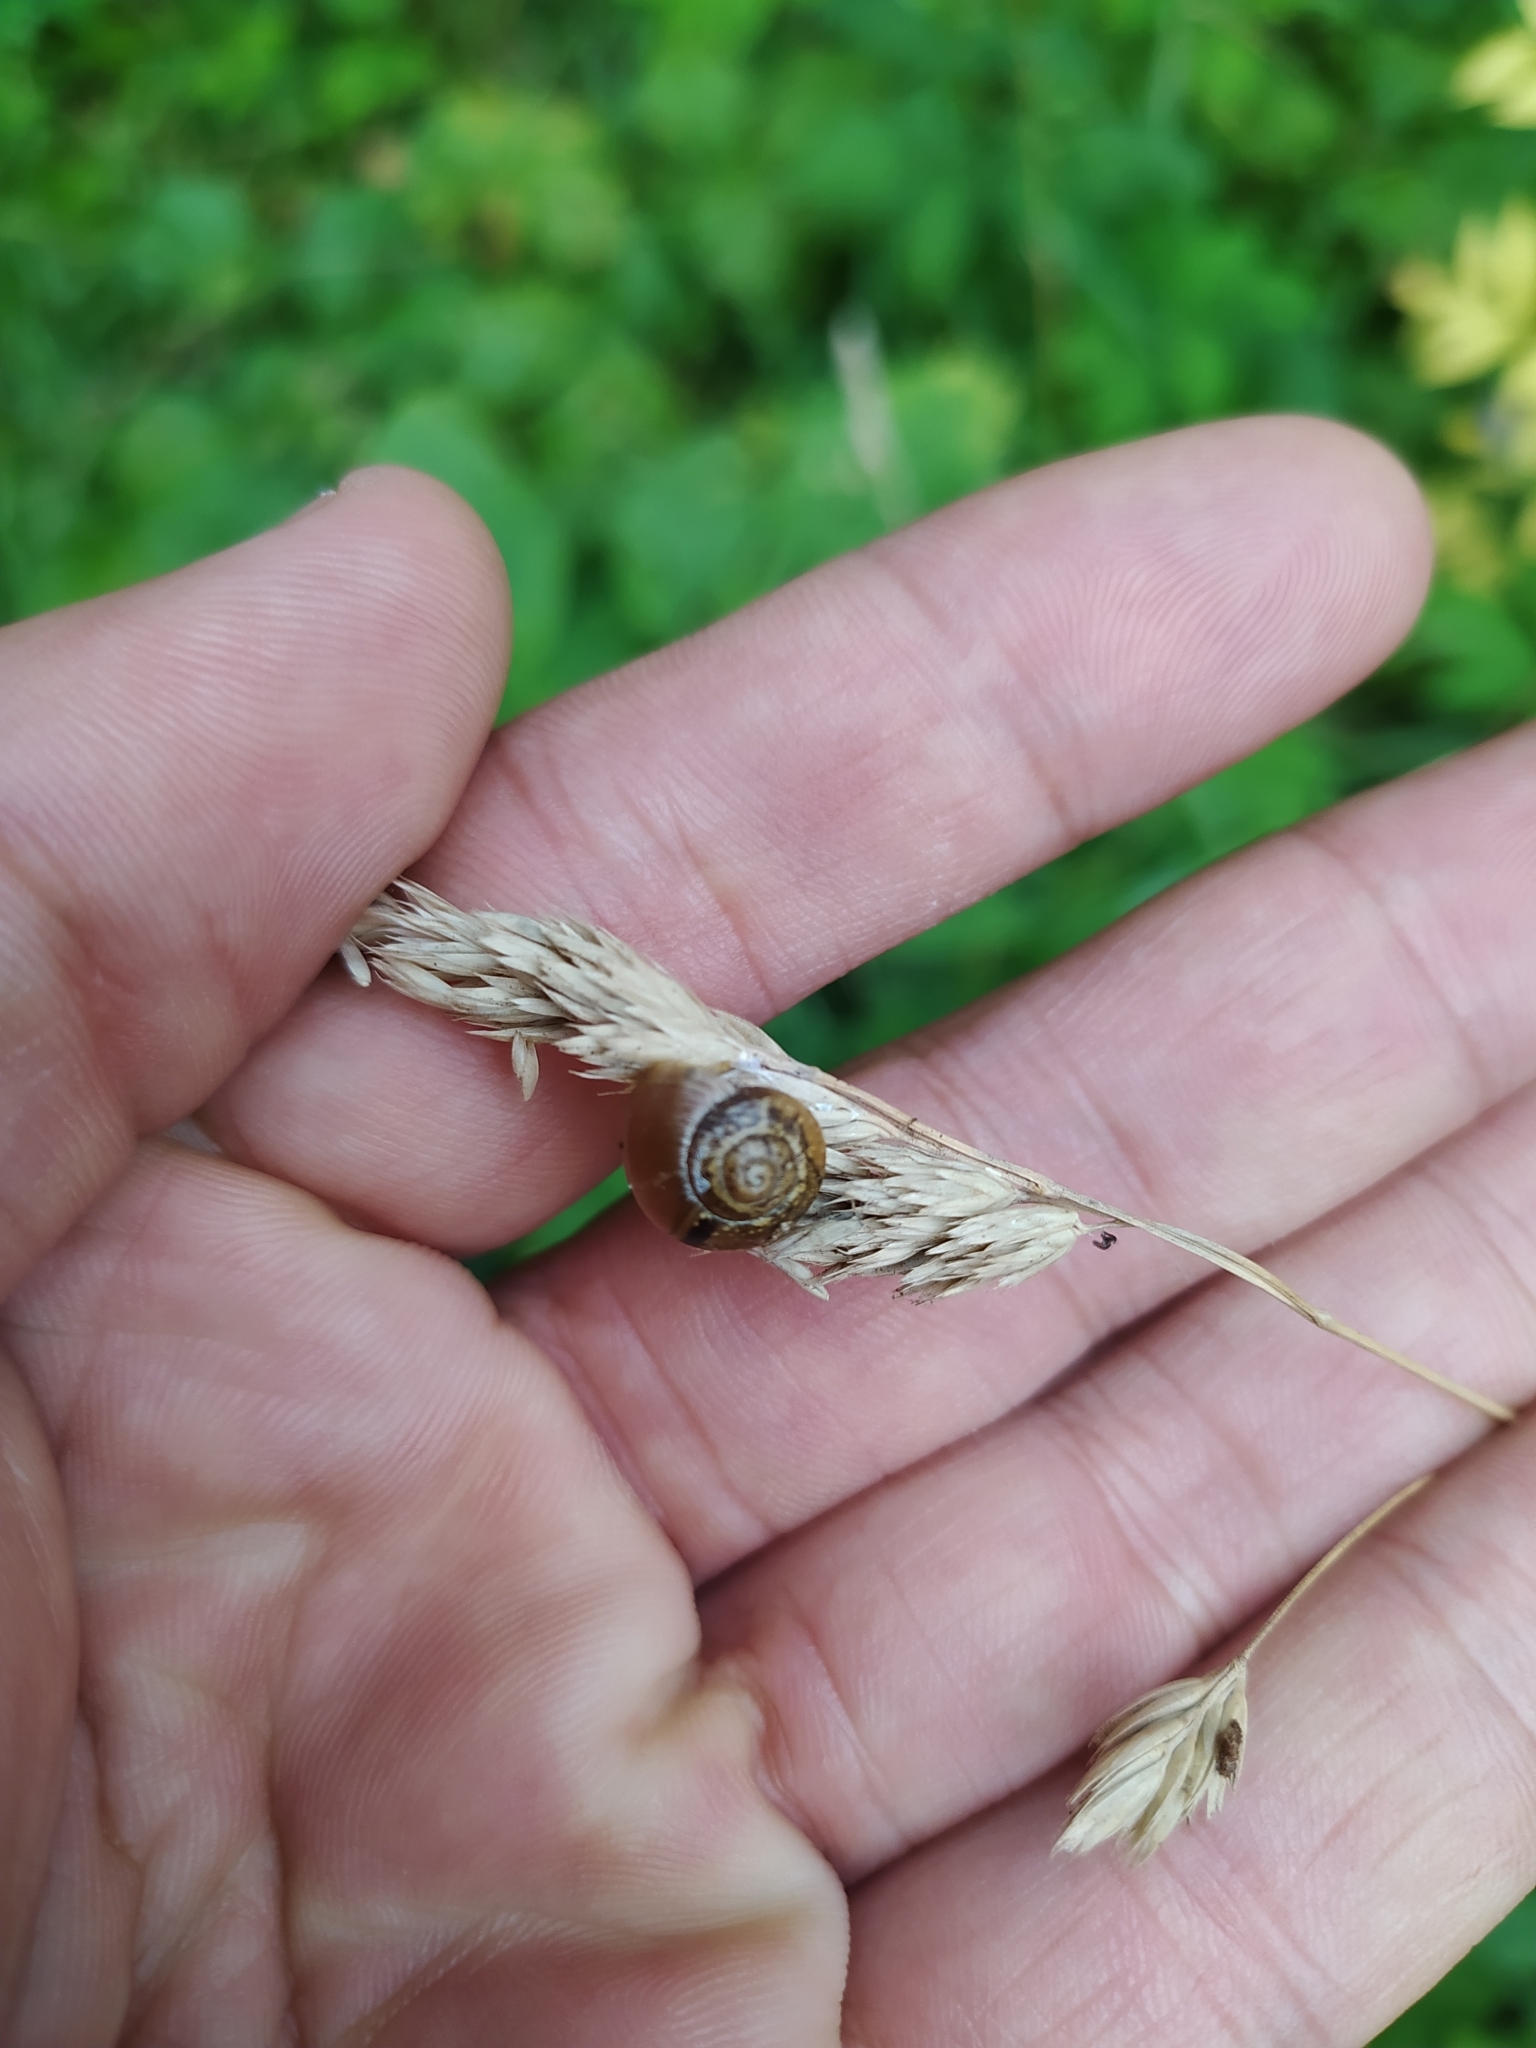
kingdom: Animalia
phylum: Mollusca
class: Gastropoda
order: Stylommatophora
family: Helicidae
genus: Arianta
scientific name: Arianta arbustorum
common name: Copse snail
